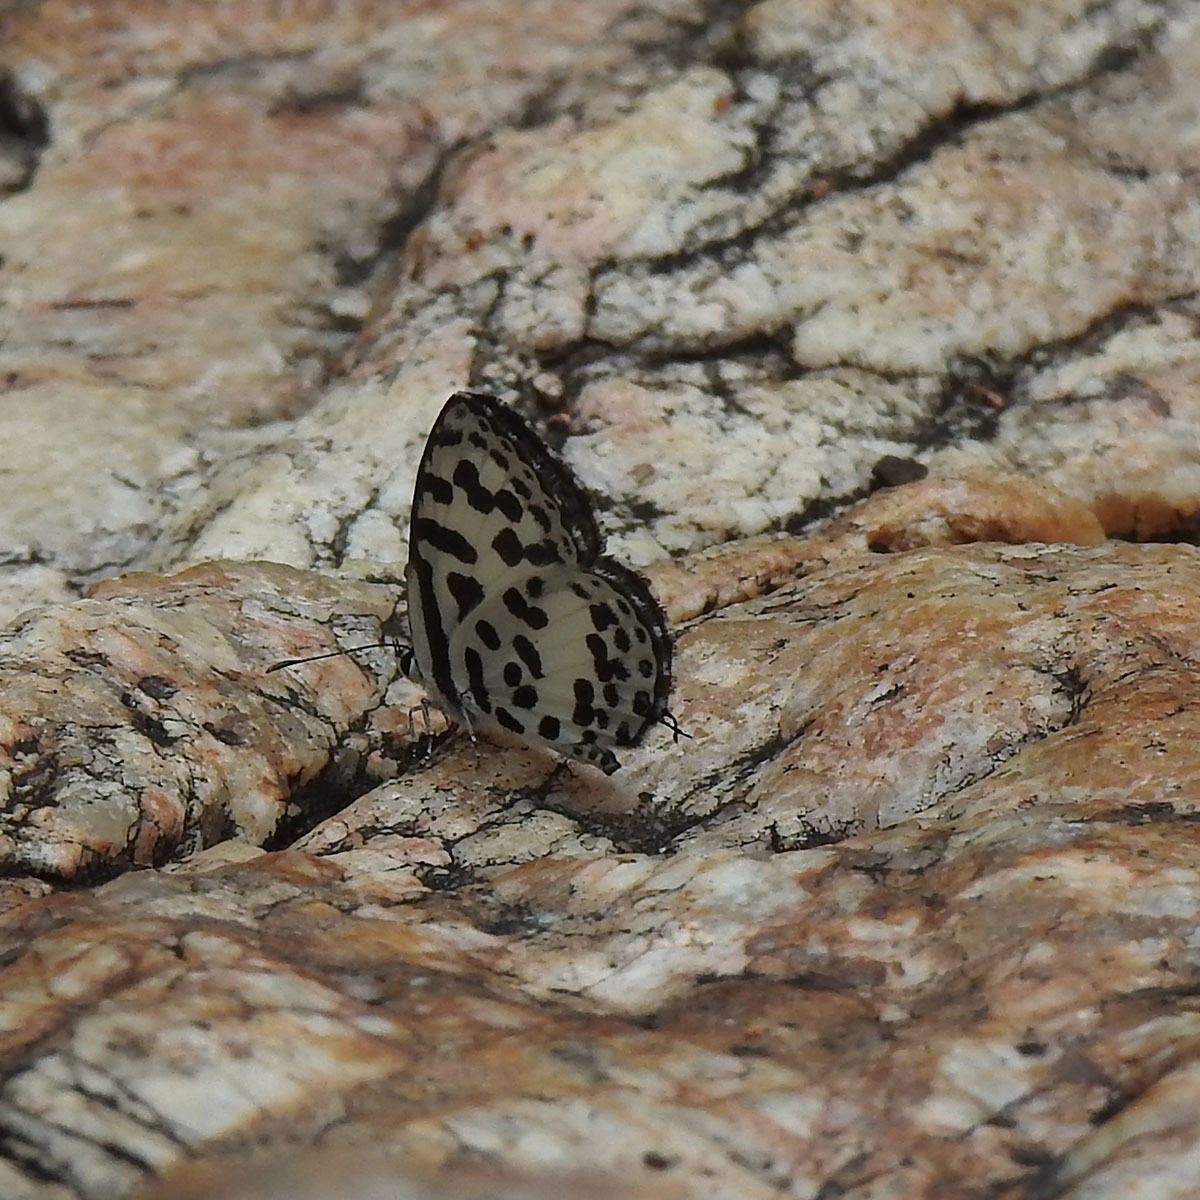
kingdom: Animalia
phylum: Arthropoda
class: Insecta
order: Lepidoptera
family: Lycaenidae
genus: Castalius
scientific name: Castalius rosimon
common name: Common pierrot
